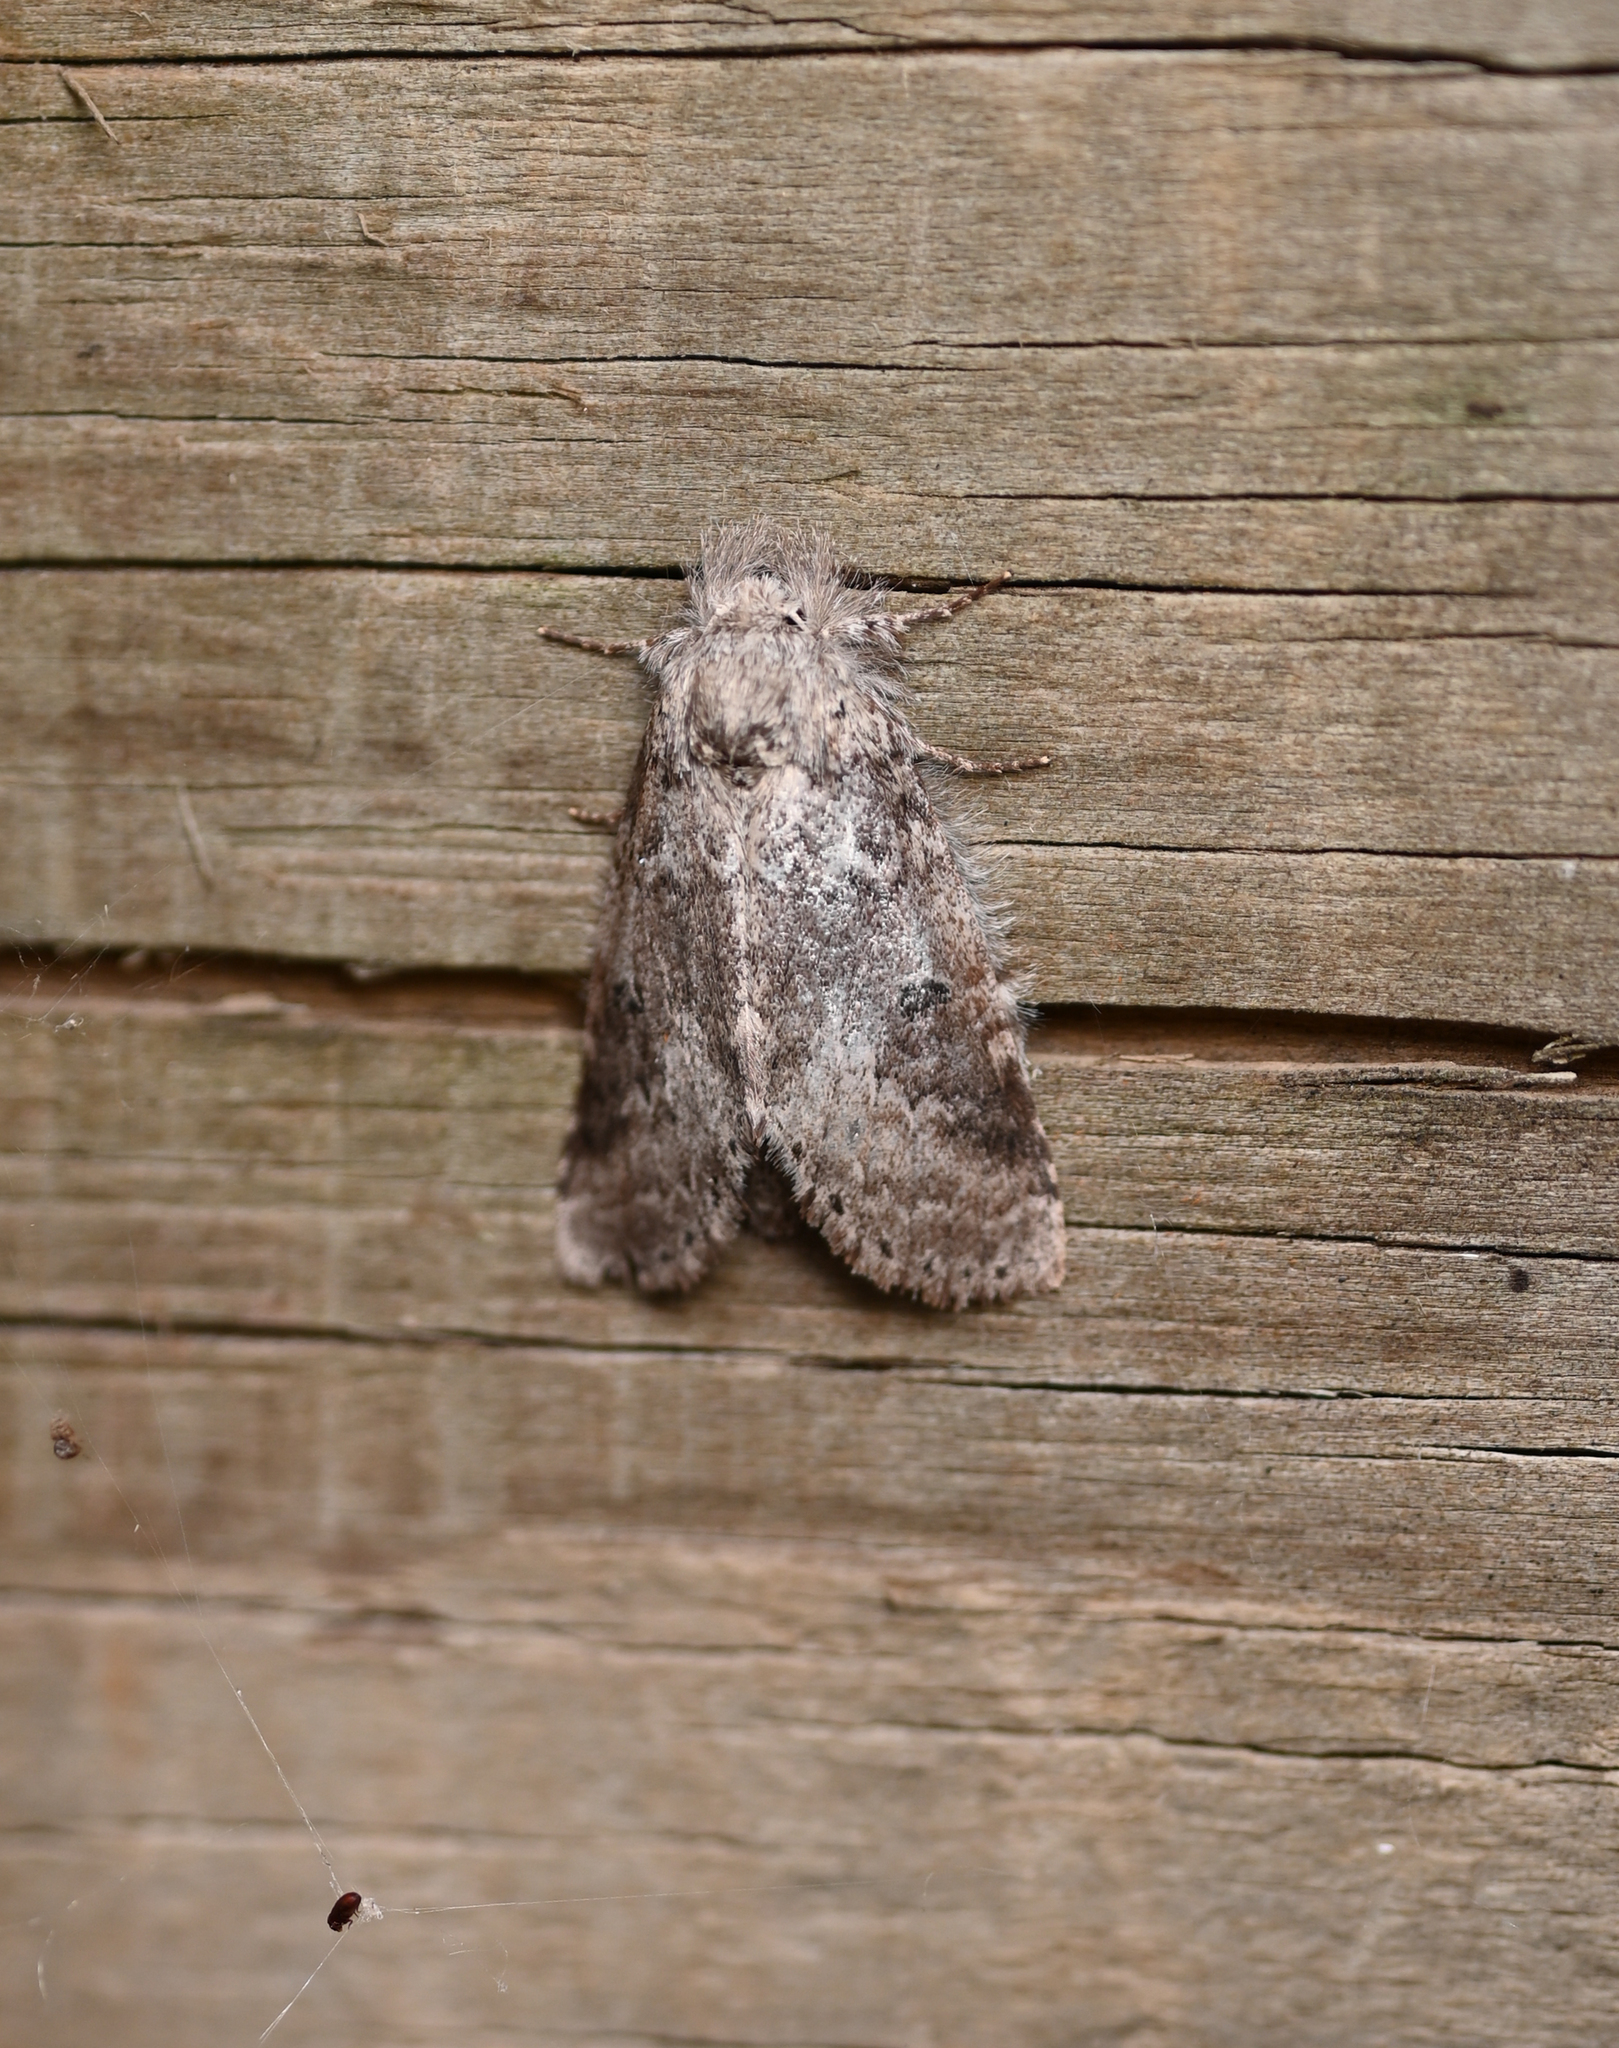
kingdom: Animalia
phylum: Arthropoda
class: Insecta
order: Lepidoptera
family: Notodontidae
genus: Lochmaeus
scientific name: Lochmaeus manteo
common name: Variable oakleaf caterpillar moth
